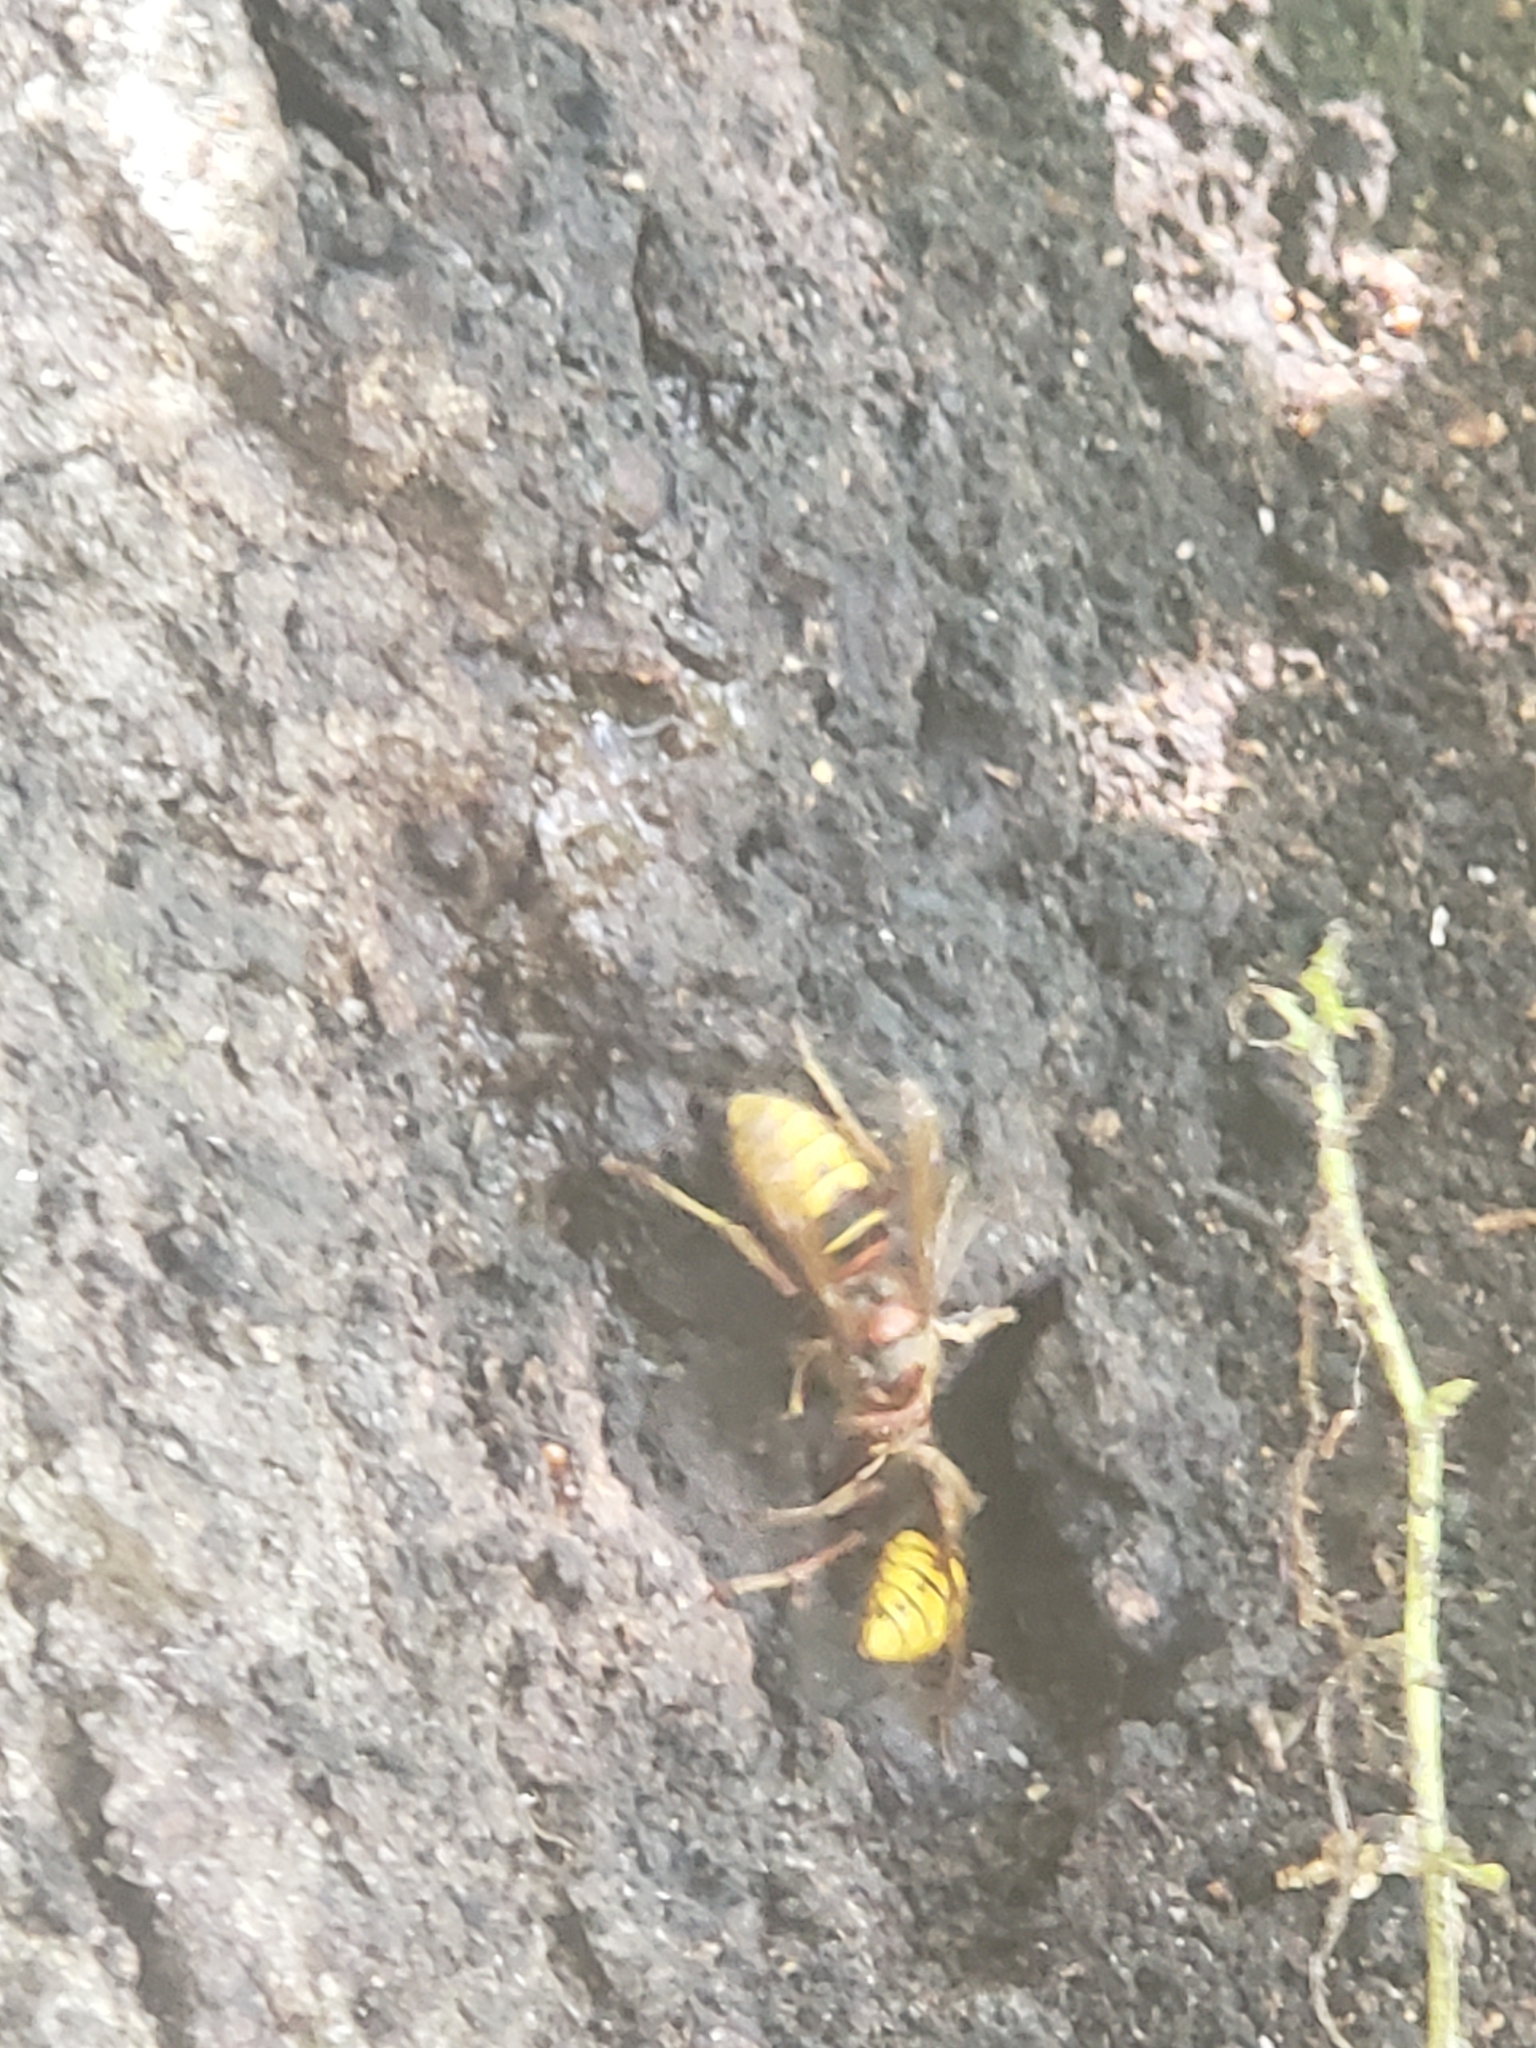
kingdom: Animalia
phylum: Arthropoda
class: Insecta
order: Hymenoptera
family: Vespidae
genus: Vespa
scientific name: Vespa crabro
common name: Hornet
